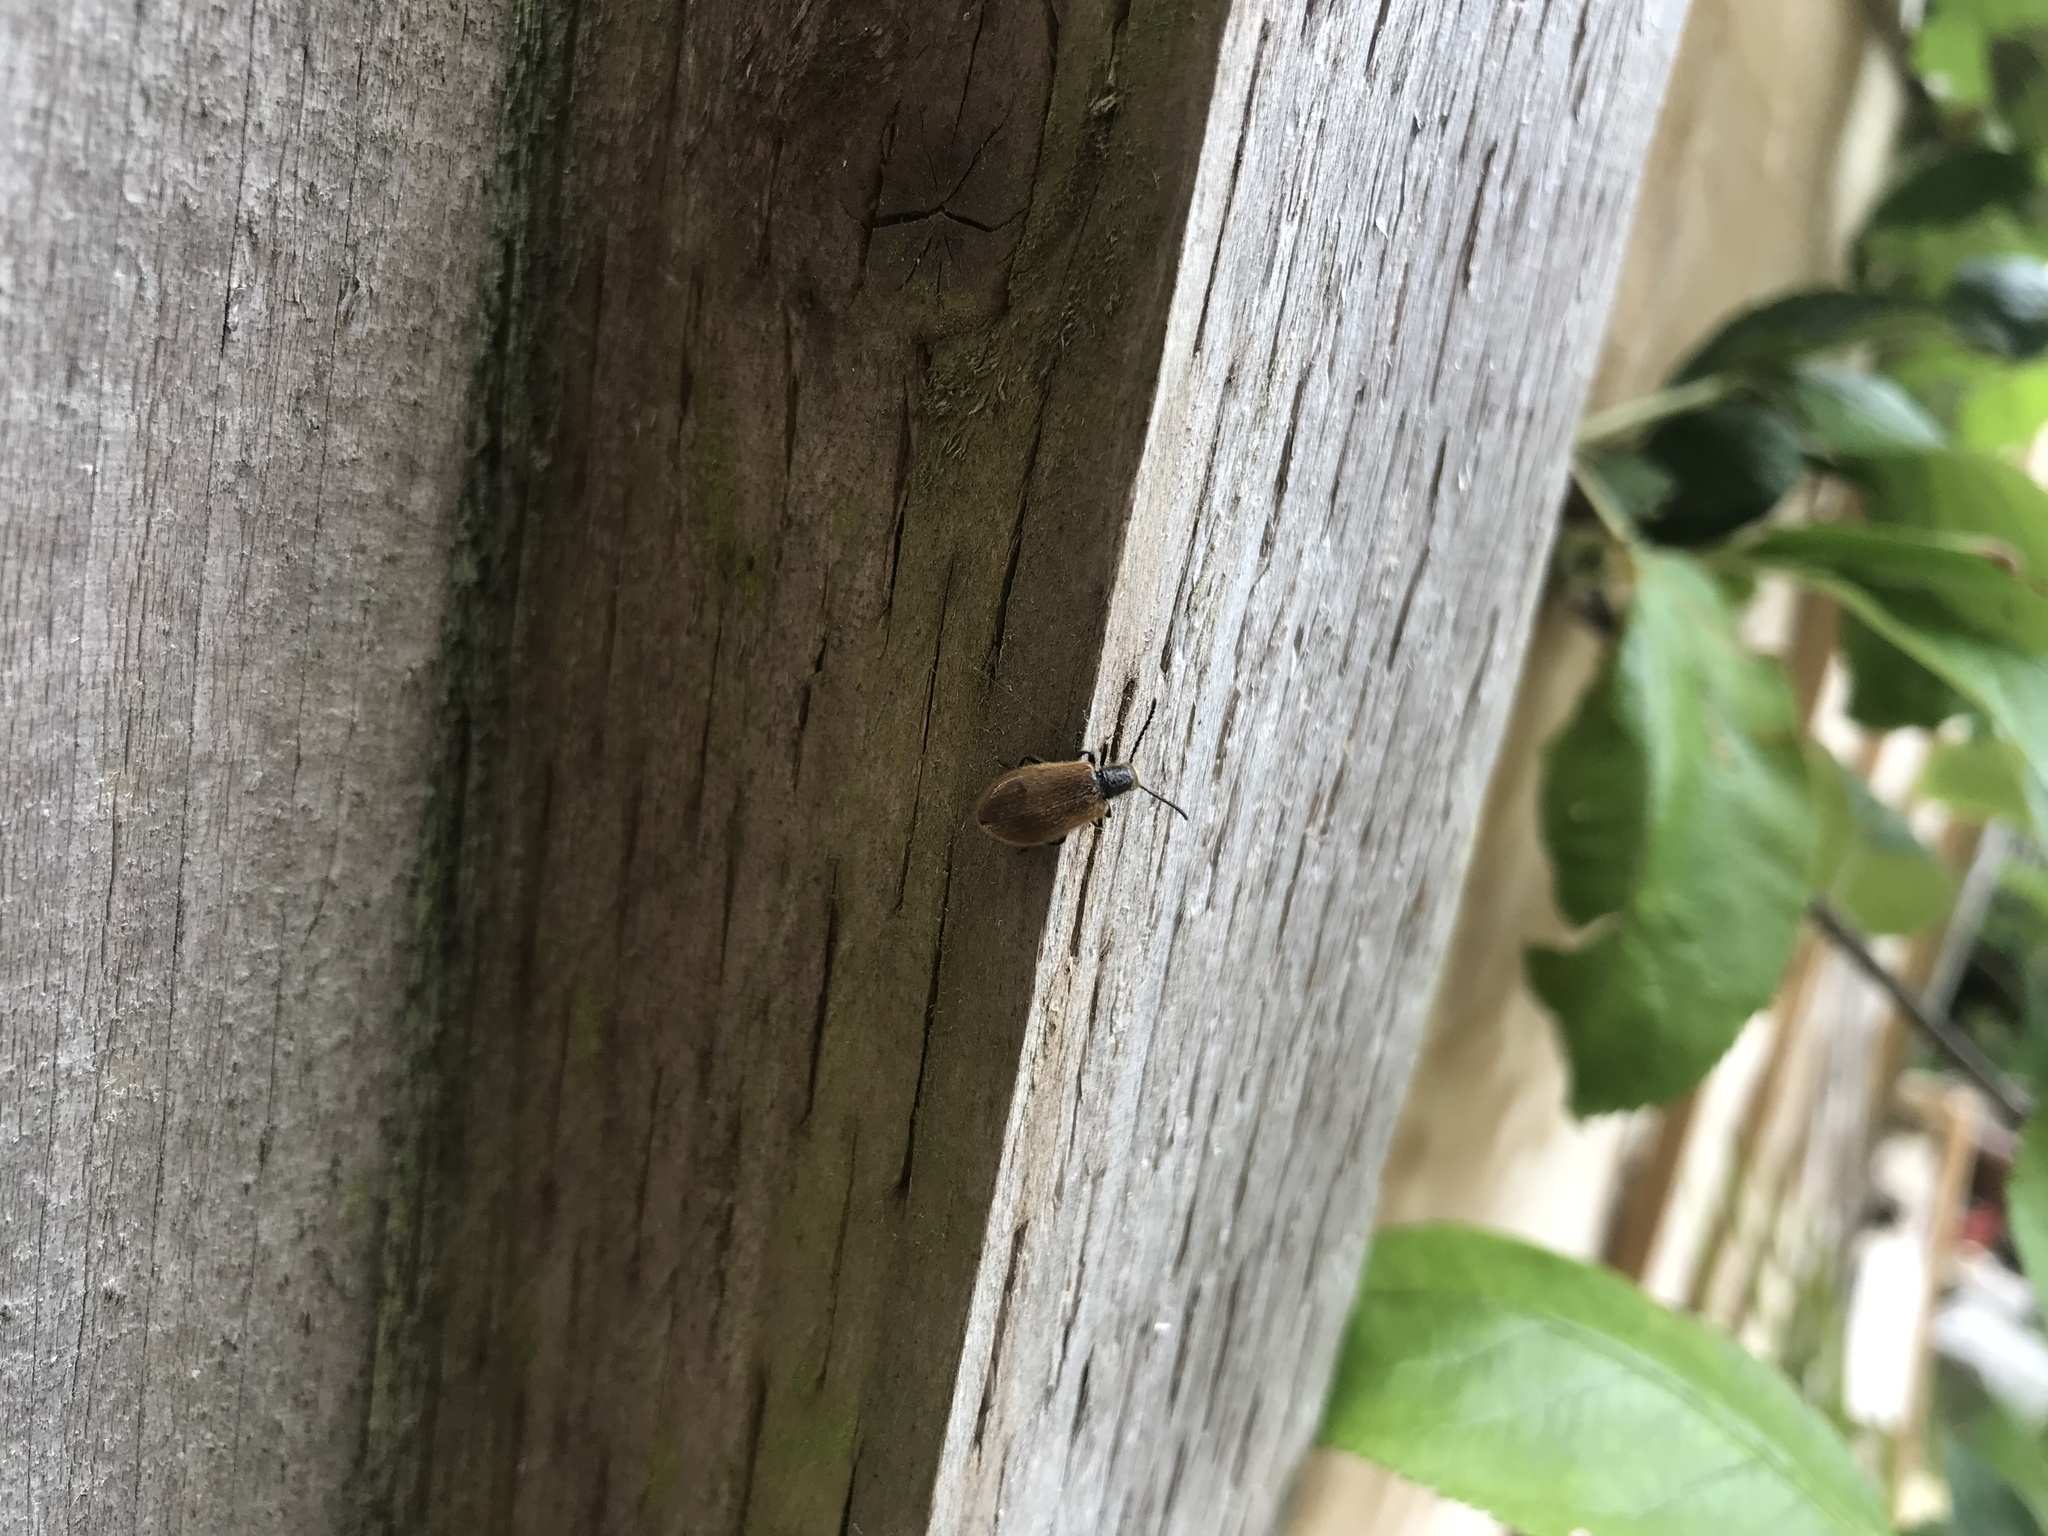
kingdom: Animalia
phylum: Arthropoda
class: Insecta
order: Coleoptera
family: Tenebrionidae
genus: Lagria
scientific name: Lagria hirta
